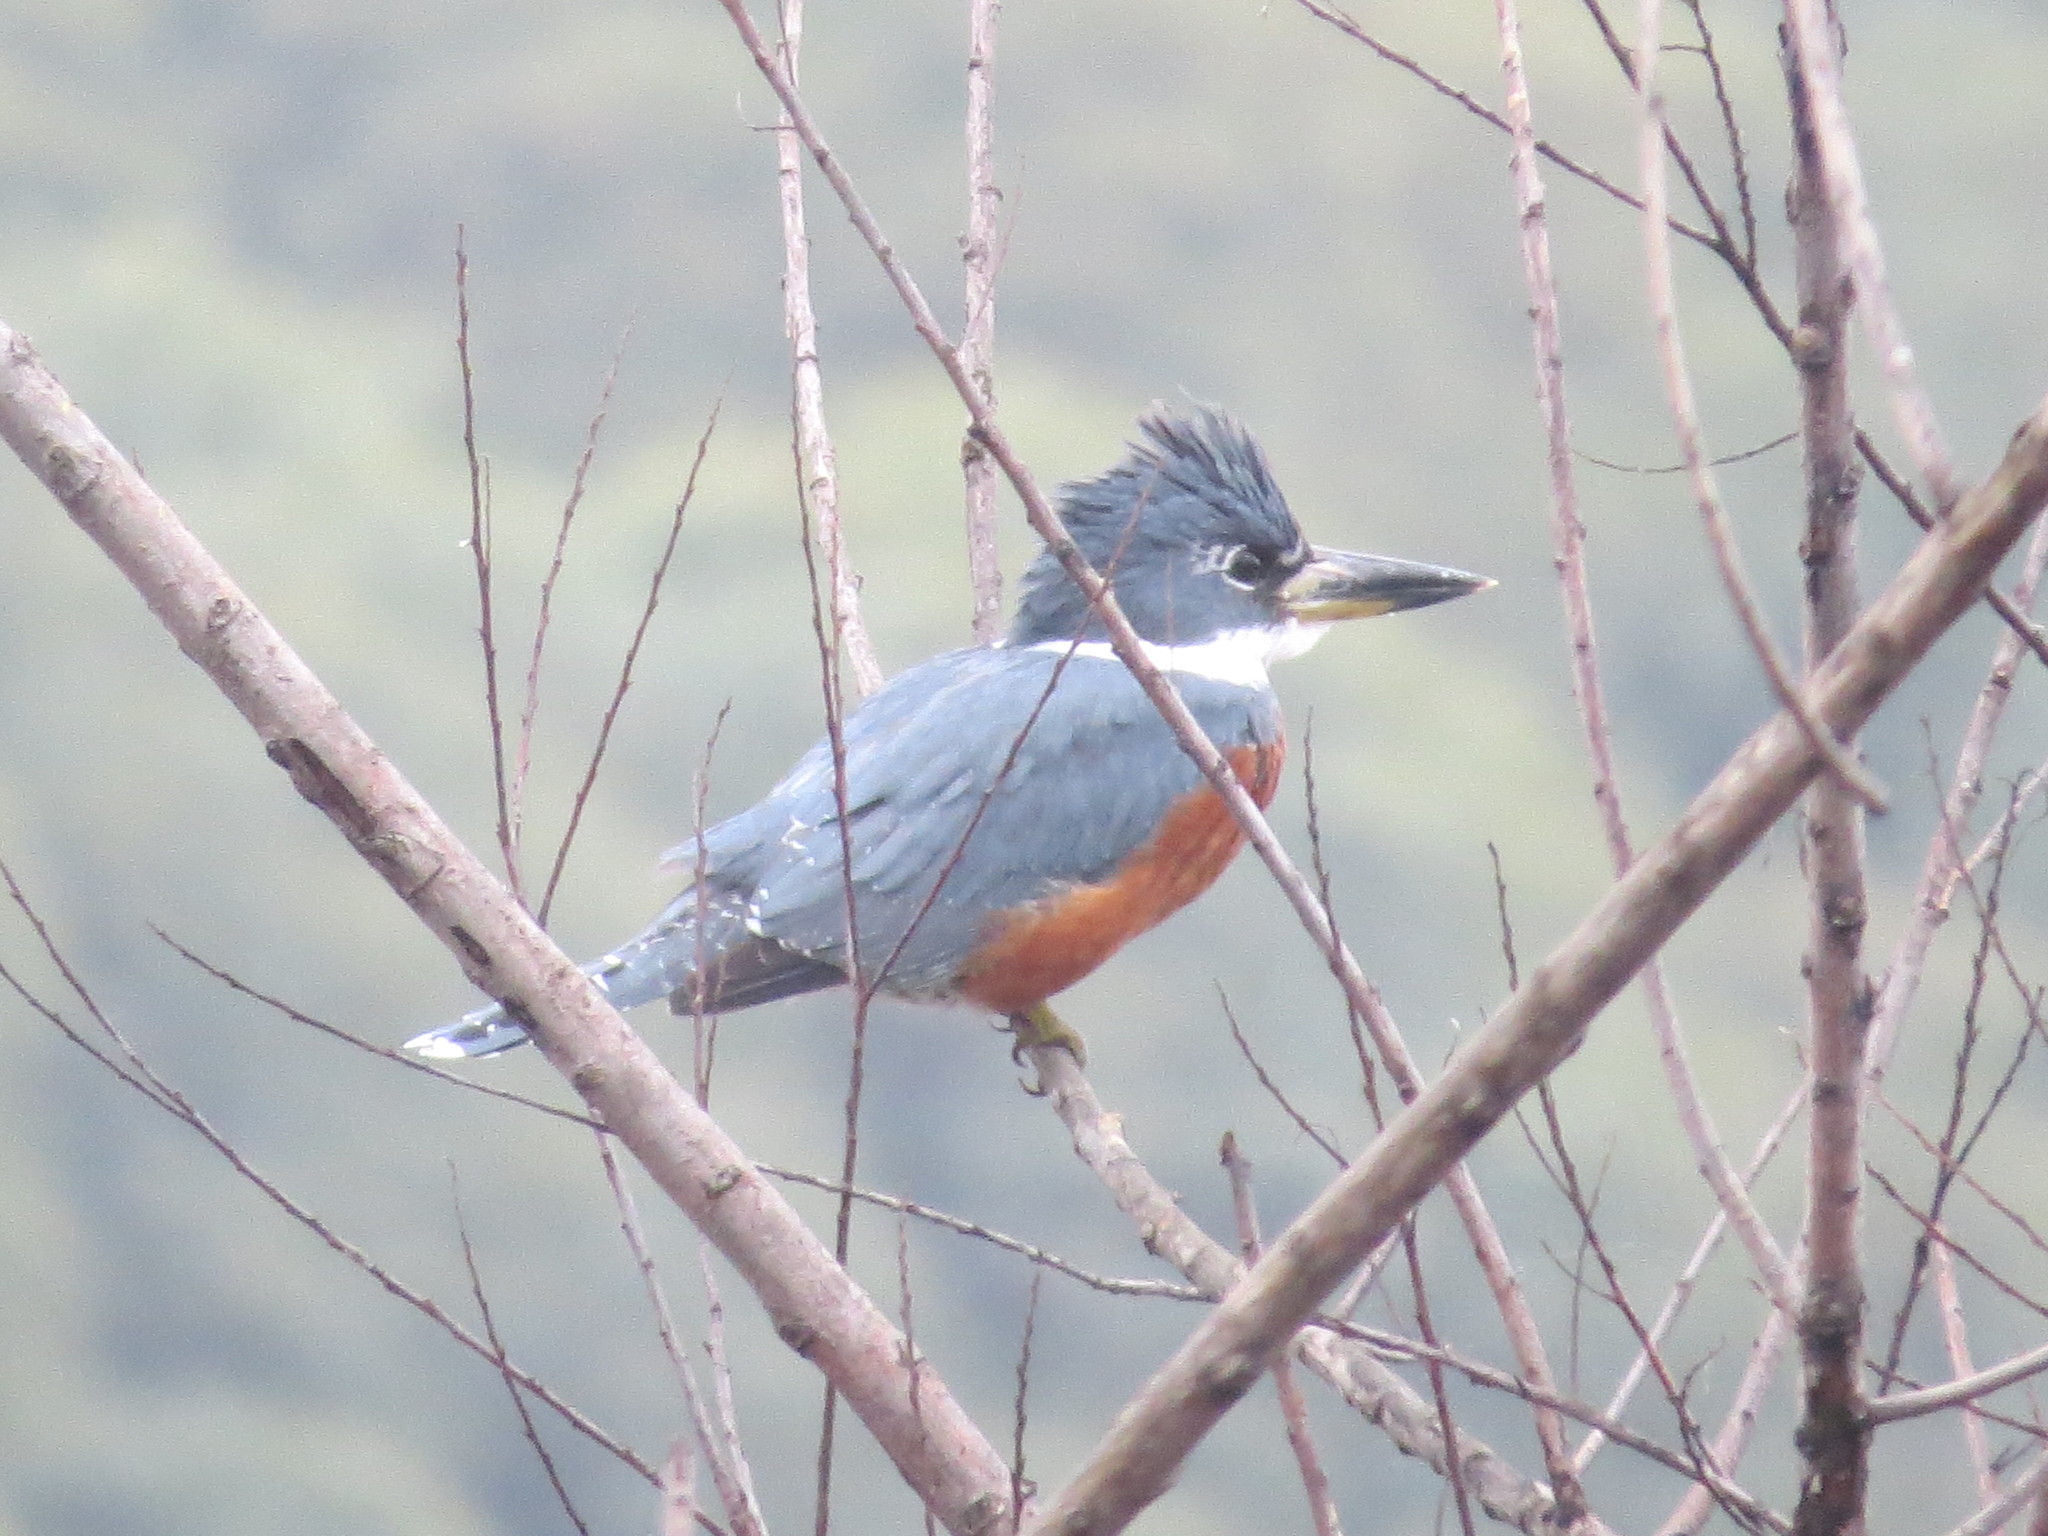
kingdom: Animalia
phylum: Chordata
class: Aves
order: Coraciiformes
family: Alcedinidae
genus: Megaceryle
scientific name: Megaceryle torquata
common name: Ringed kingfisher
